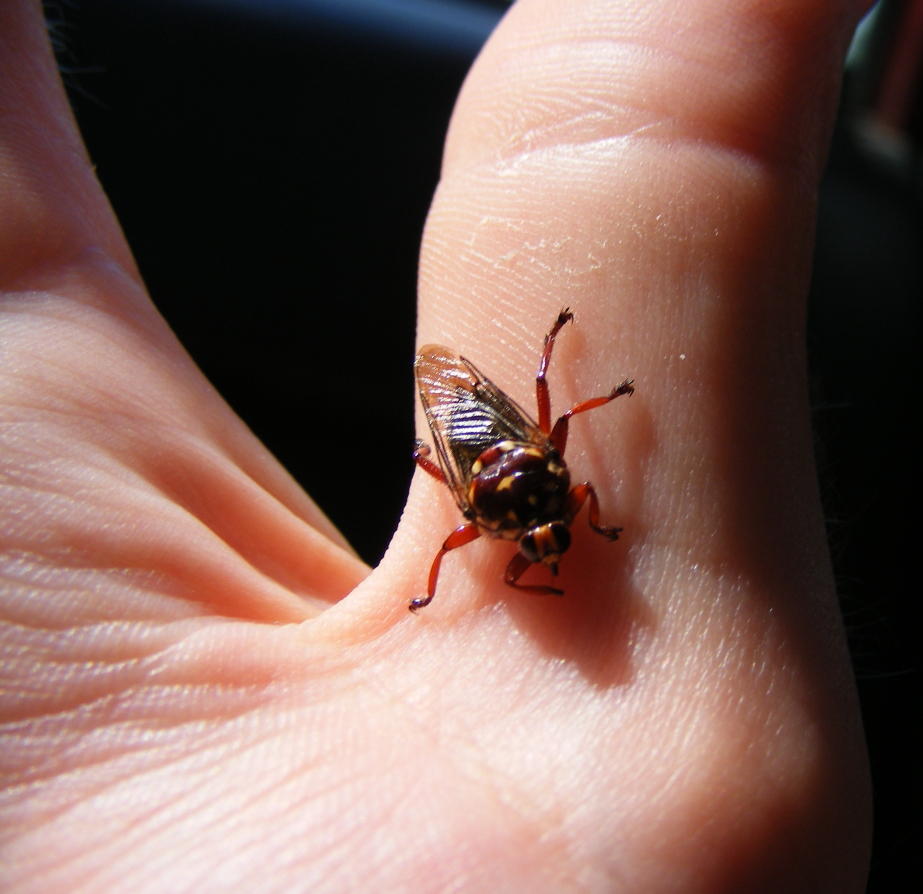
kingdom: Animalia
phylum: Arthropoda
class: Insecta
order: Diptera
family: Hippoboscidae
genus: Hippobosca
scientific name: Hippobosca rufipes
